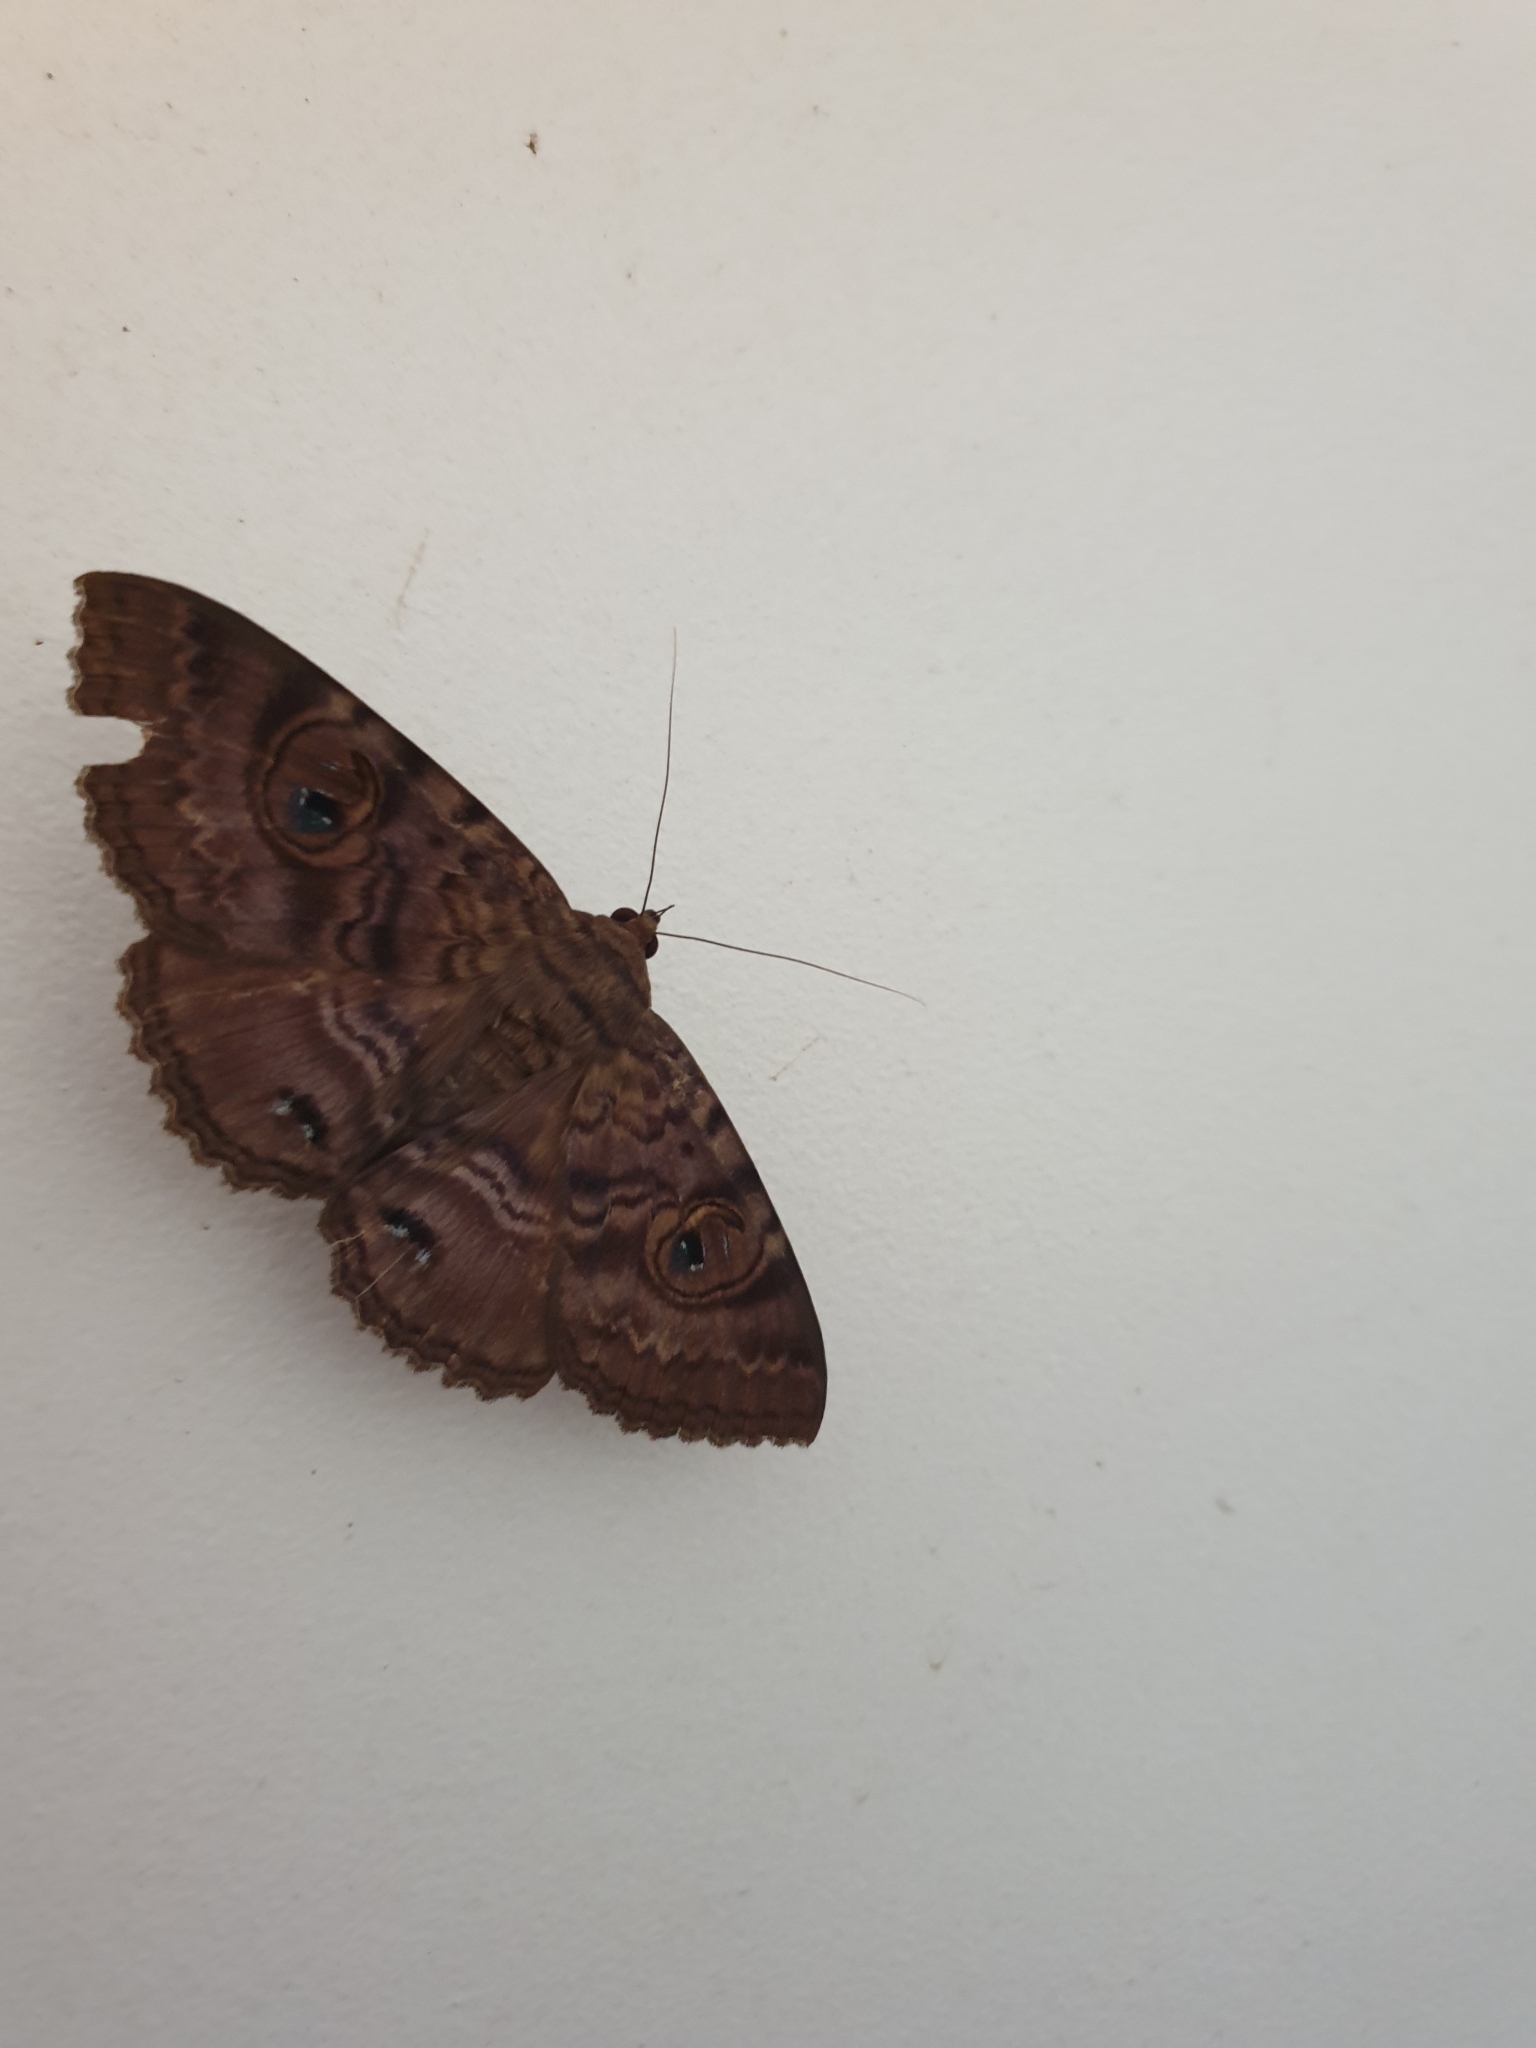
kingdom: Animalia
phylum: Arthropoda
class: Insecta
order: Lepidoptera
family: Erebidae
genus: Speiredonia
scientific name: Speiredonia spectans
